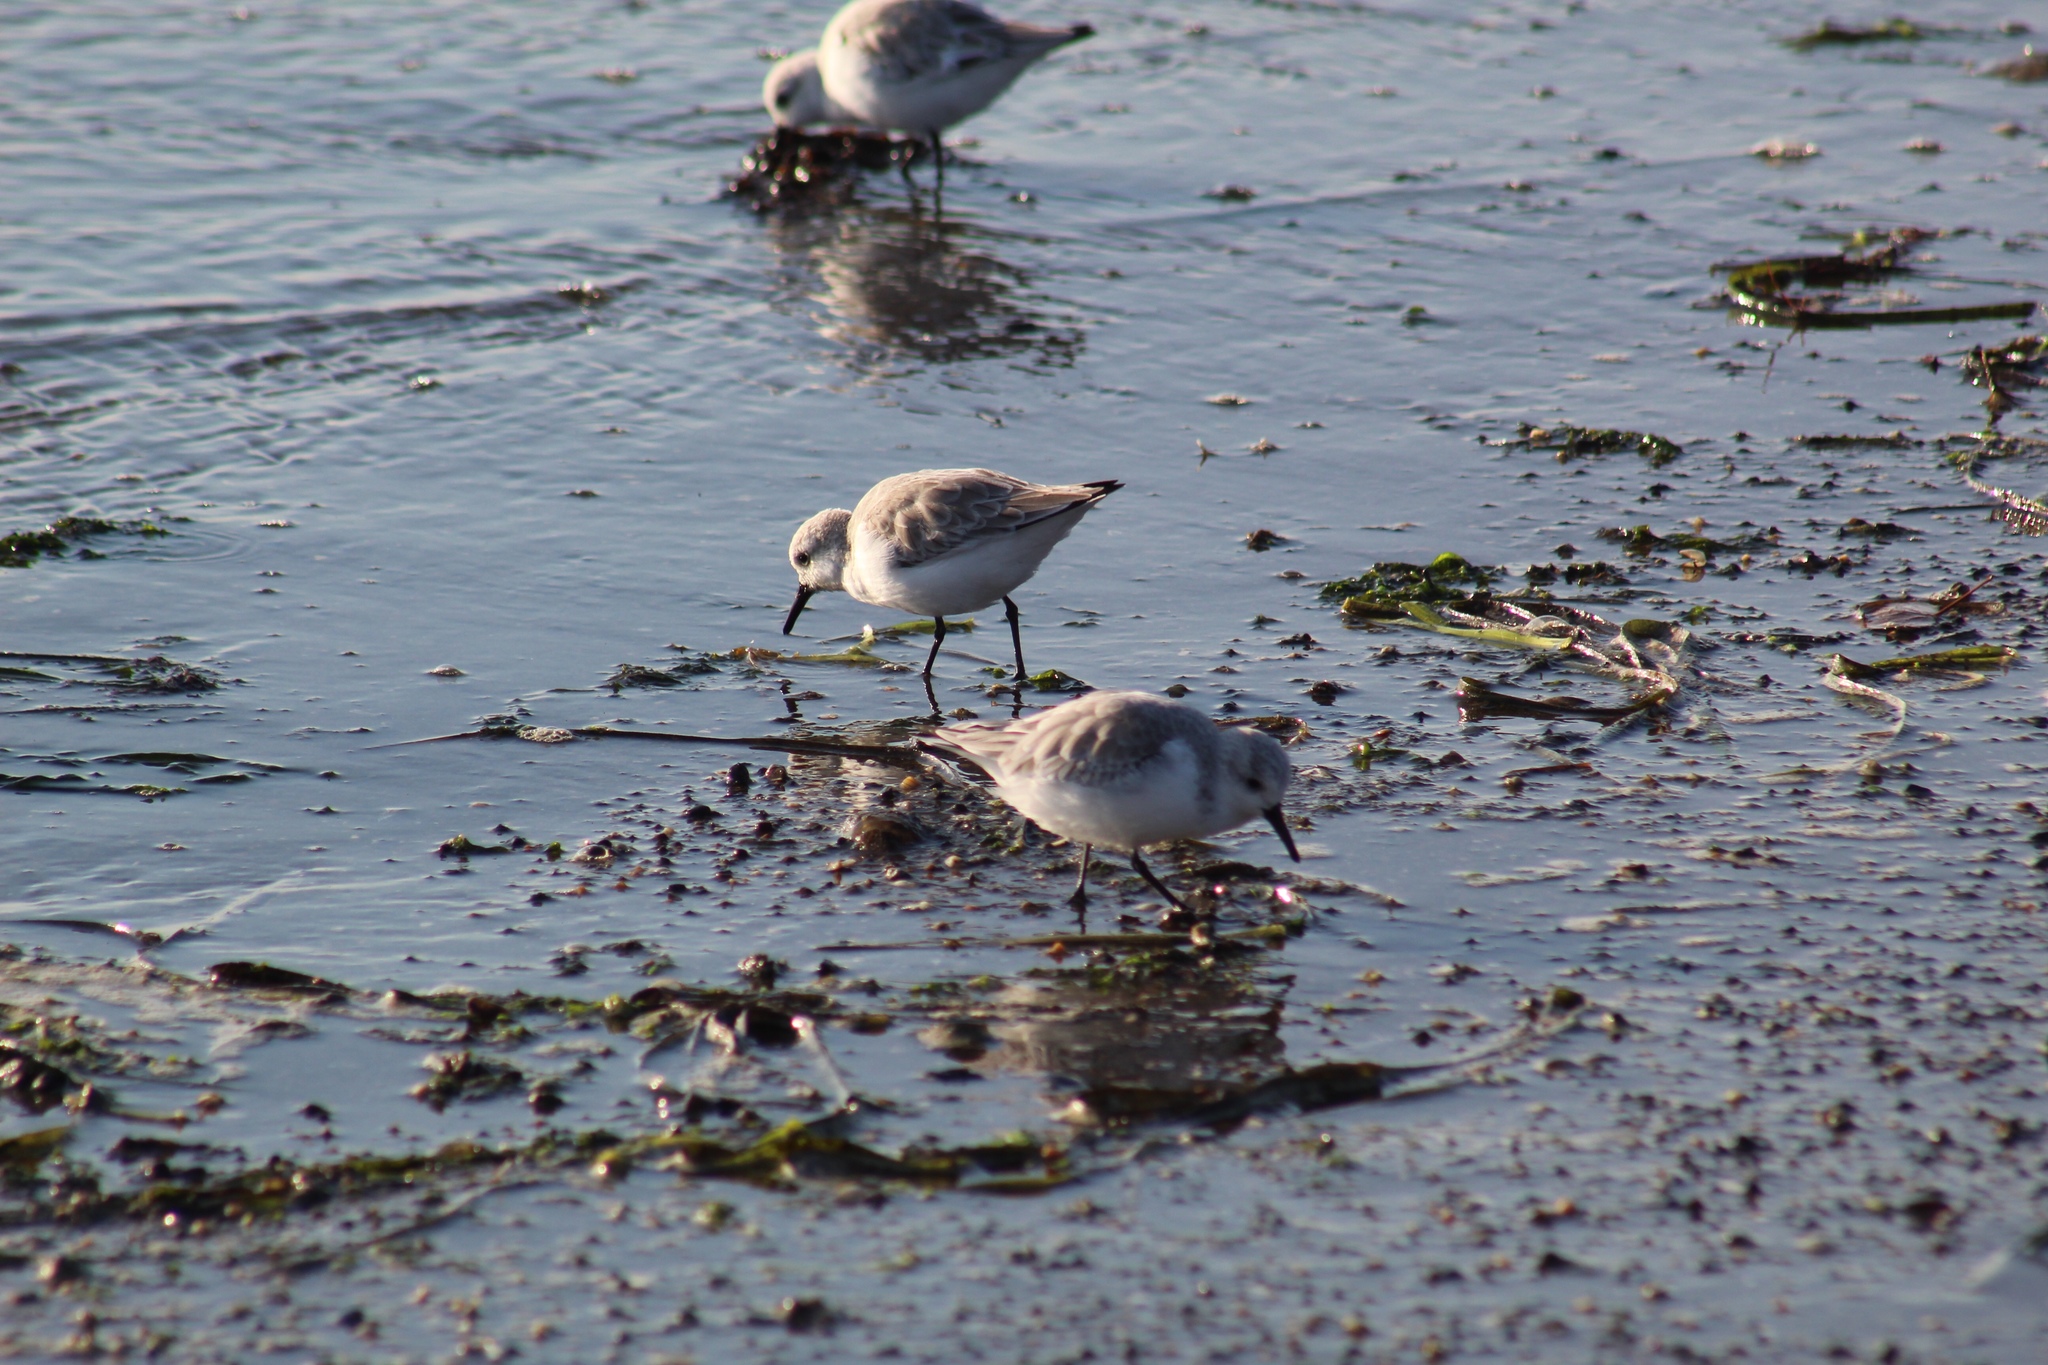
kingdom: Animalia
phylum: Chordata
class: Aves
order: Charadriiformes
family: Scolopacidae
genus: Calidris
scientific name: Calidris alba
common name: Sanderling
